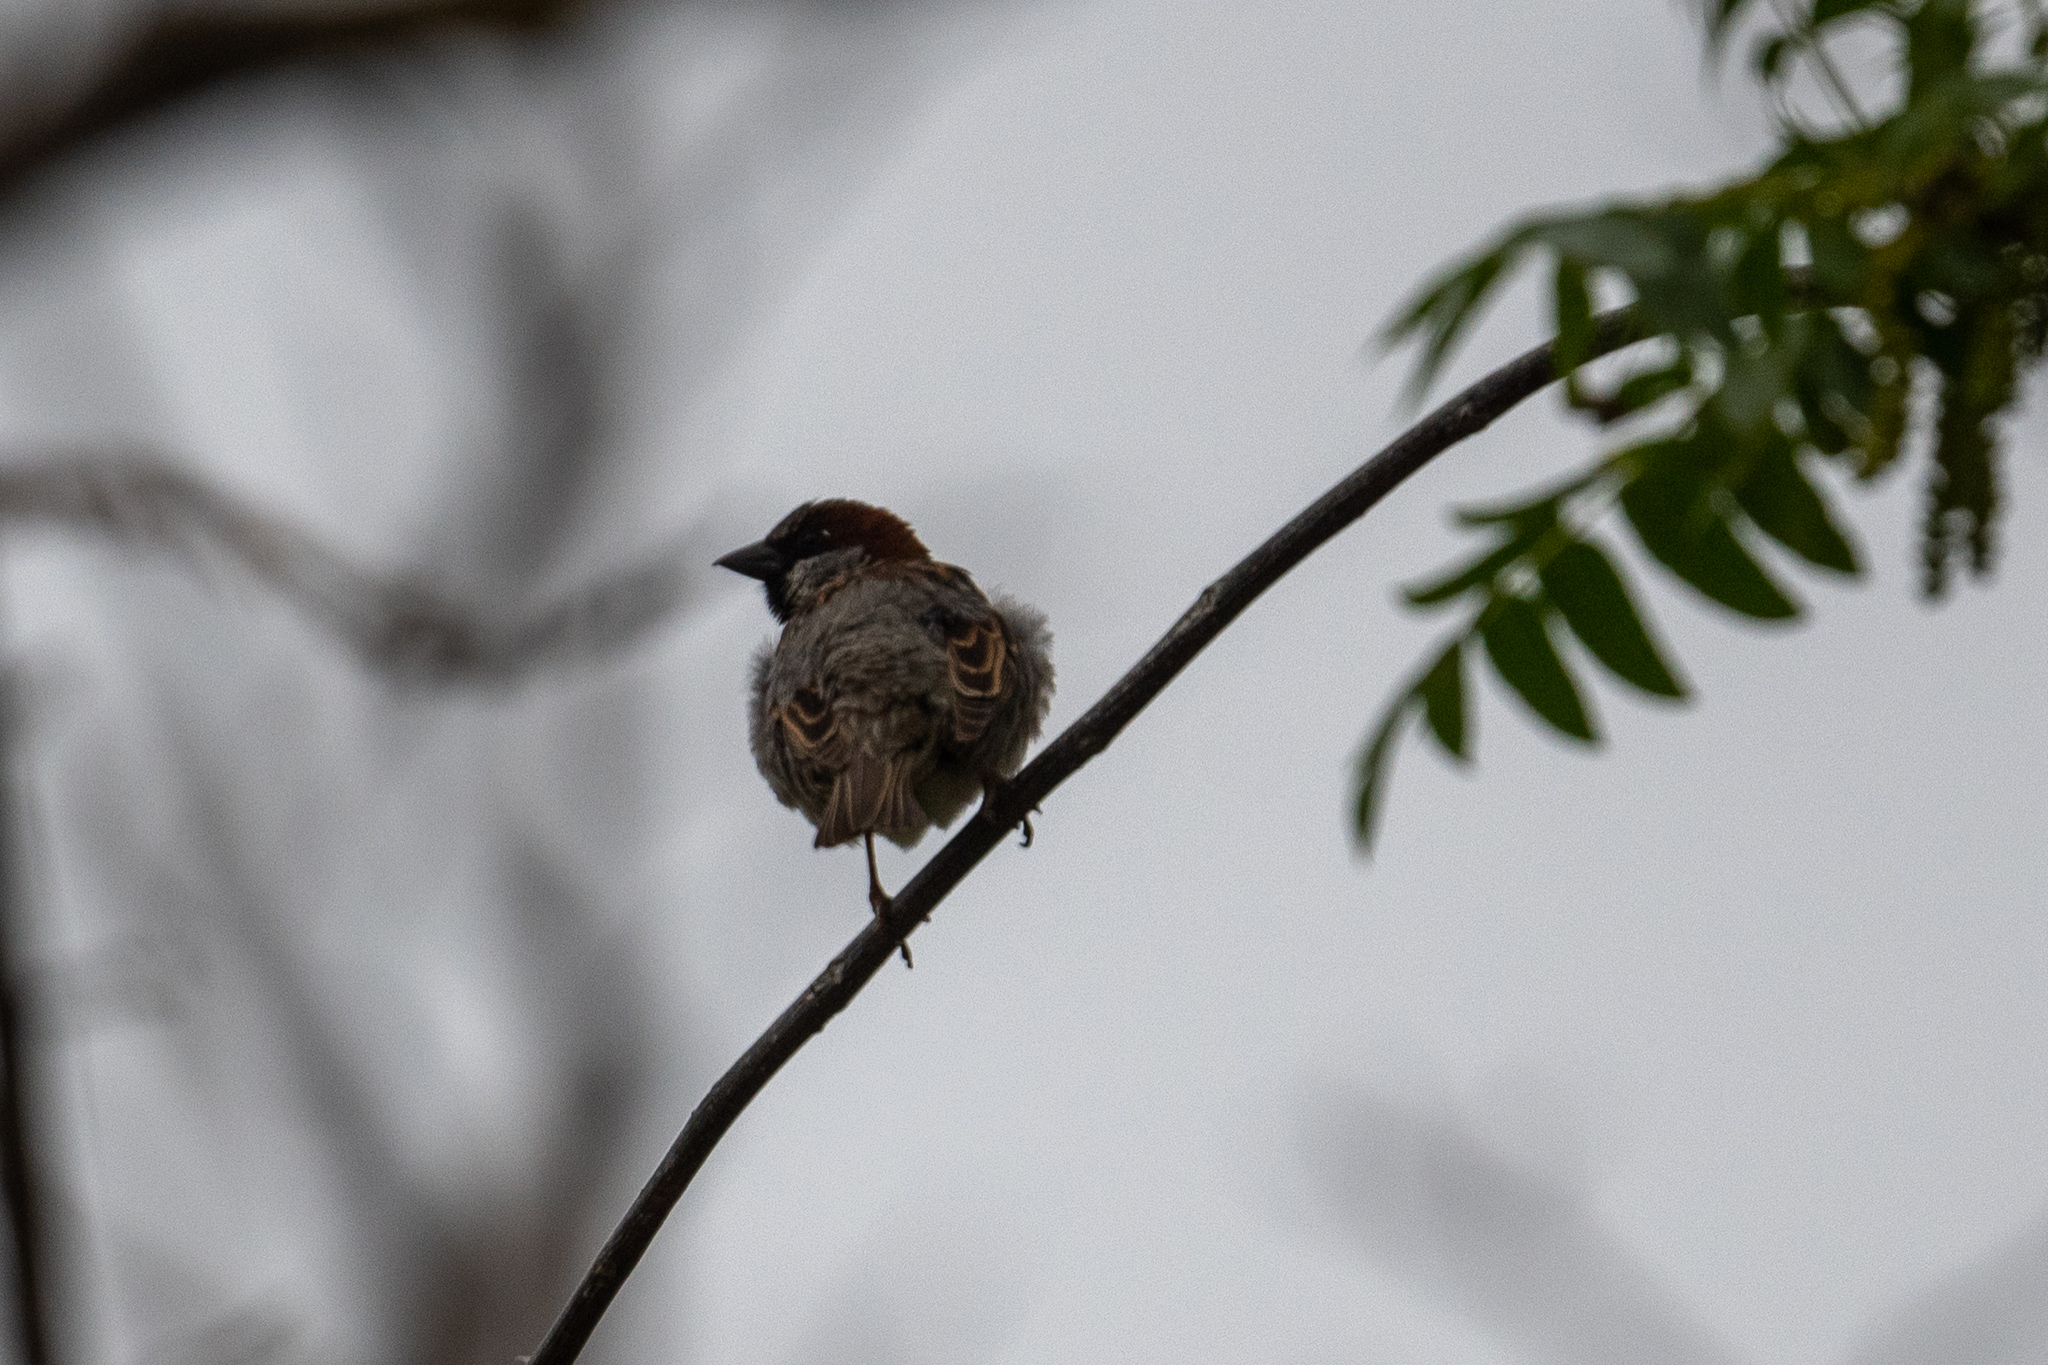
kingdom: Animalia
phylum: Chordata
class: Aves
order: Passeriformes
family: Passeridae
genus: Passer
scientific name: Passer domesticus
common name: House sparrow
